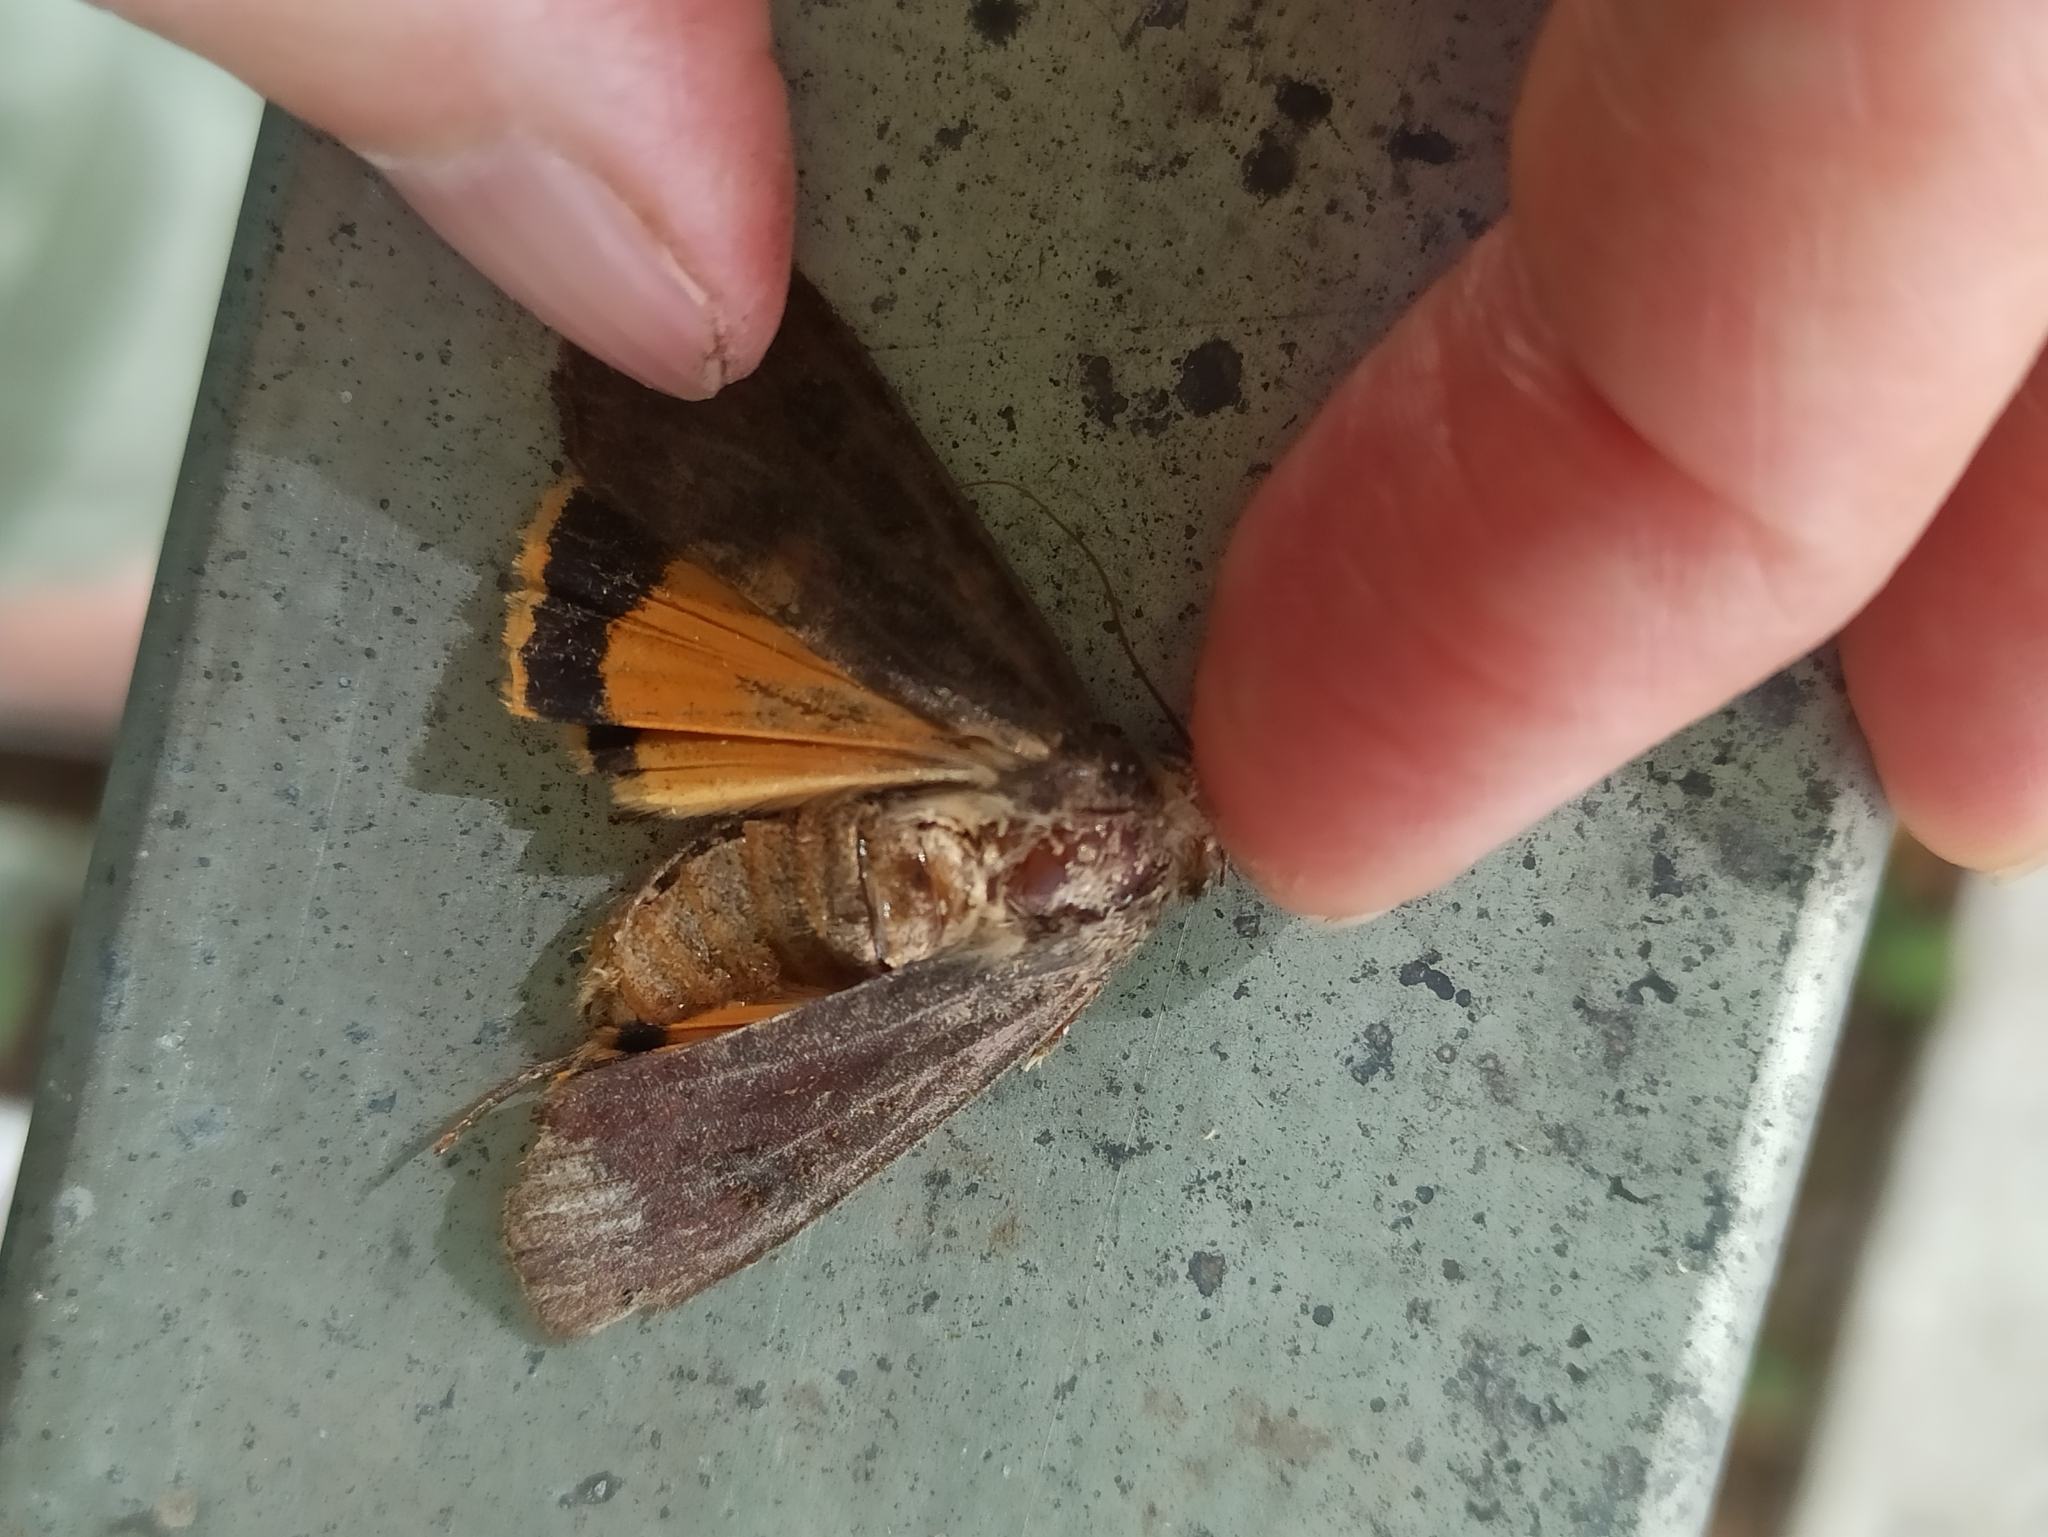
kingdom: Animalia
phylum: Arthropoda
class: Insecta
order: Lepidoptera
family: Noctuidae
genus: Noctua
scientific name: Noctua pronuba
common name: Large yellow underwing
